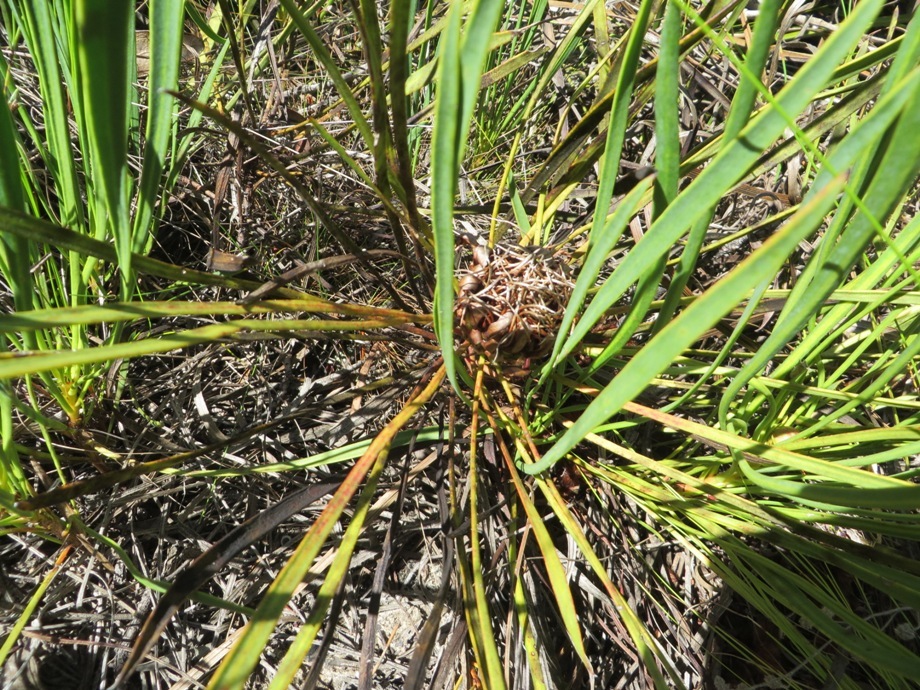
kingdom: Plantae
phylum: Tracheophyta
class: Magnoliopsida
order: Proteales
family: Proteaceae
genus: Protea
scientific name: Protea angustata
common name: Kleinmond sugarbush
